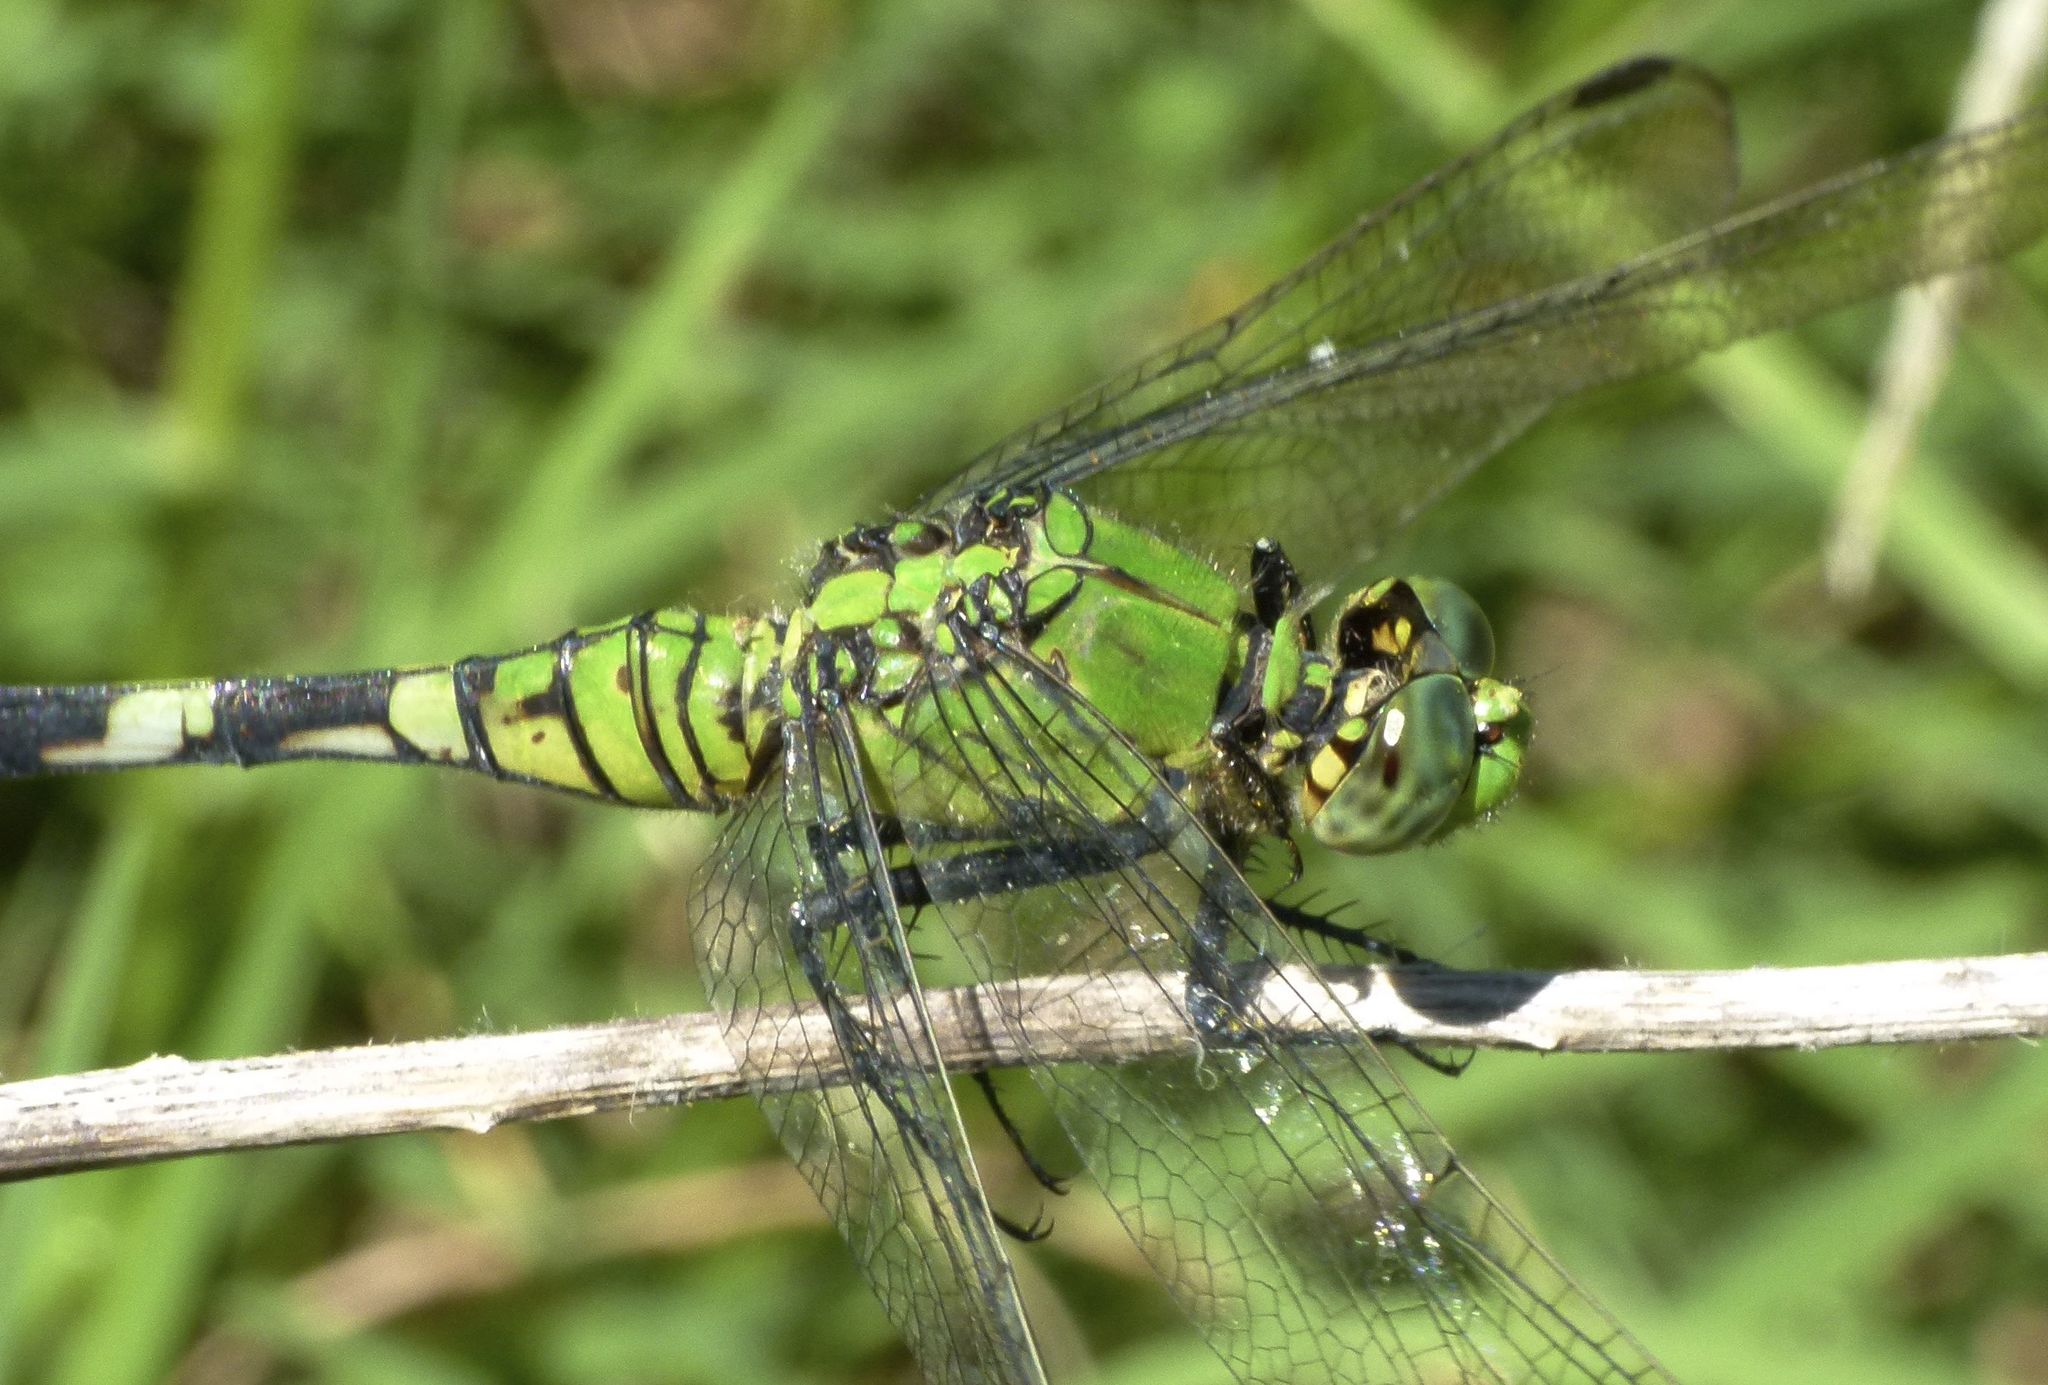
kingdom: Animalia
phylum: Arthropoda
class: Insecta
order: Odonata
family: Libellulidae
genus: Erythemis
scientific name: Erythemis simplicicollis
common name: Eastern pondhawk
